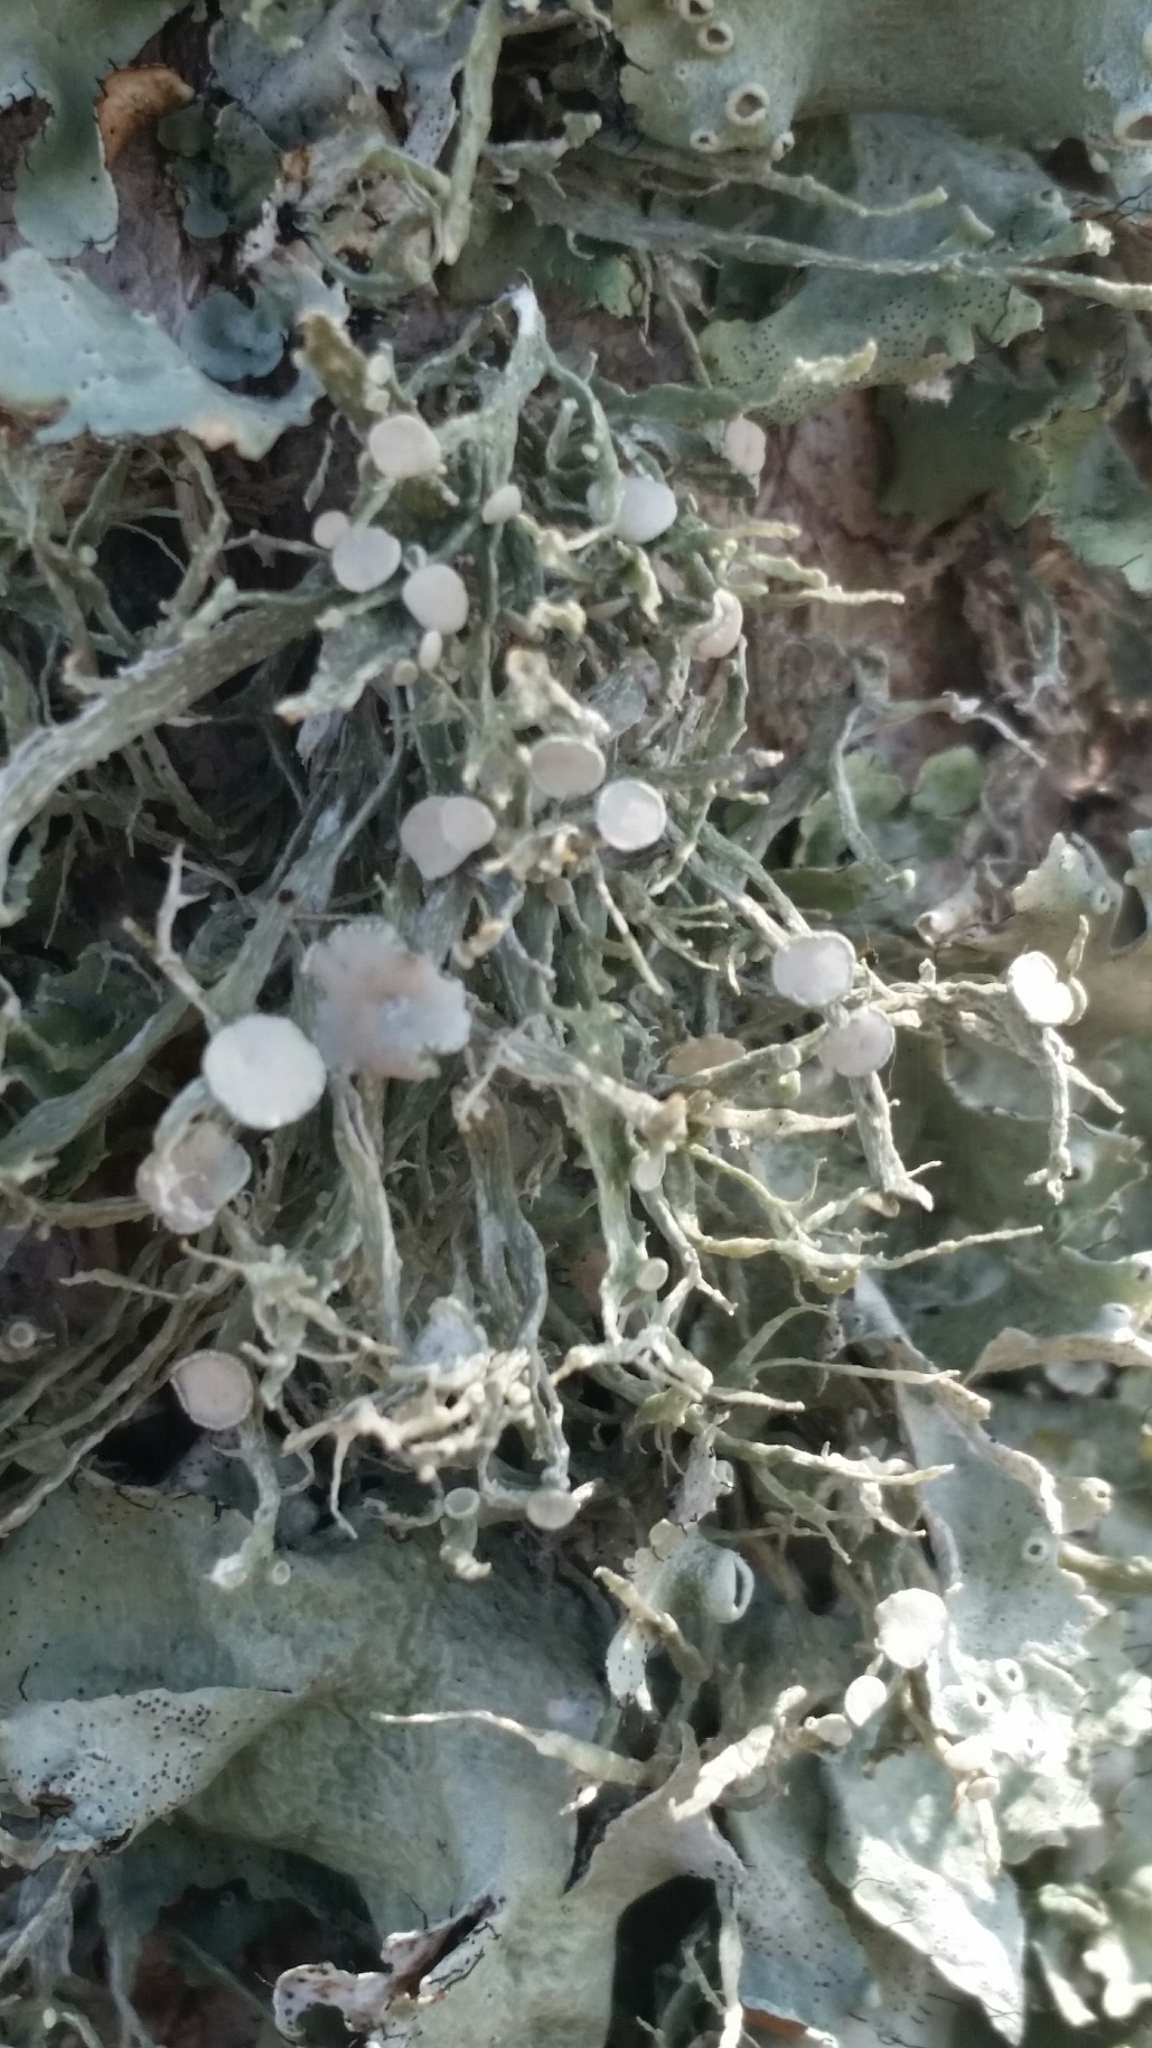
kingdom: Fungi
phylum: Ascomycota
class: Lecanoromycetes
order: Lecanorales
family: Ramalinaceae
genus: Ramalina
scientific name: Ramalina complanata
